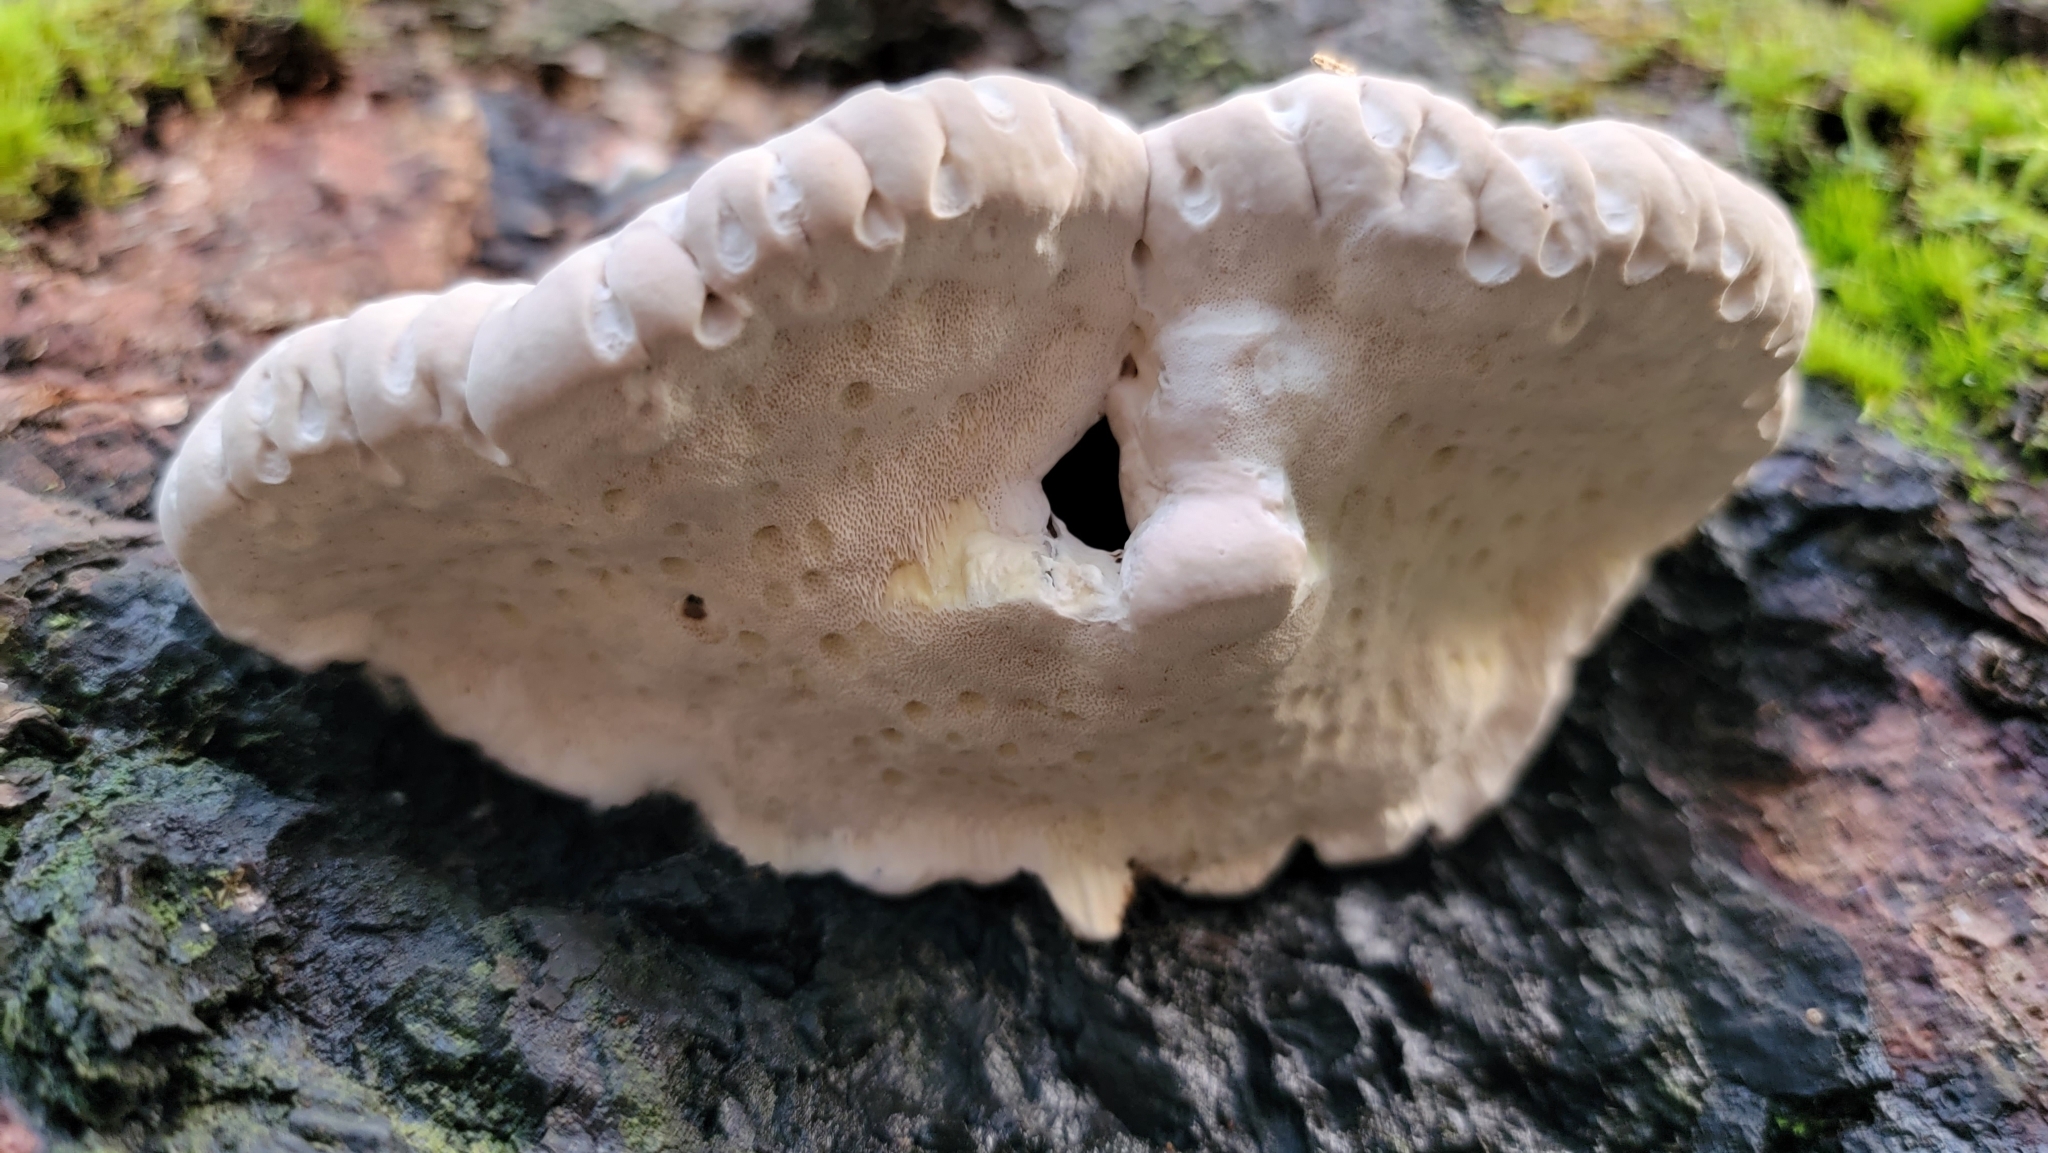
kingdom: Fungi
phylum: Basidiomycota
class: Agaricomycetes
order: Polyporales
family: Fomitopsidaceae
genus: Fomitopsis
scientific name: Fomitopsis mounceae
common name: Northern red belt
